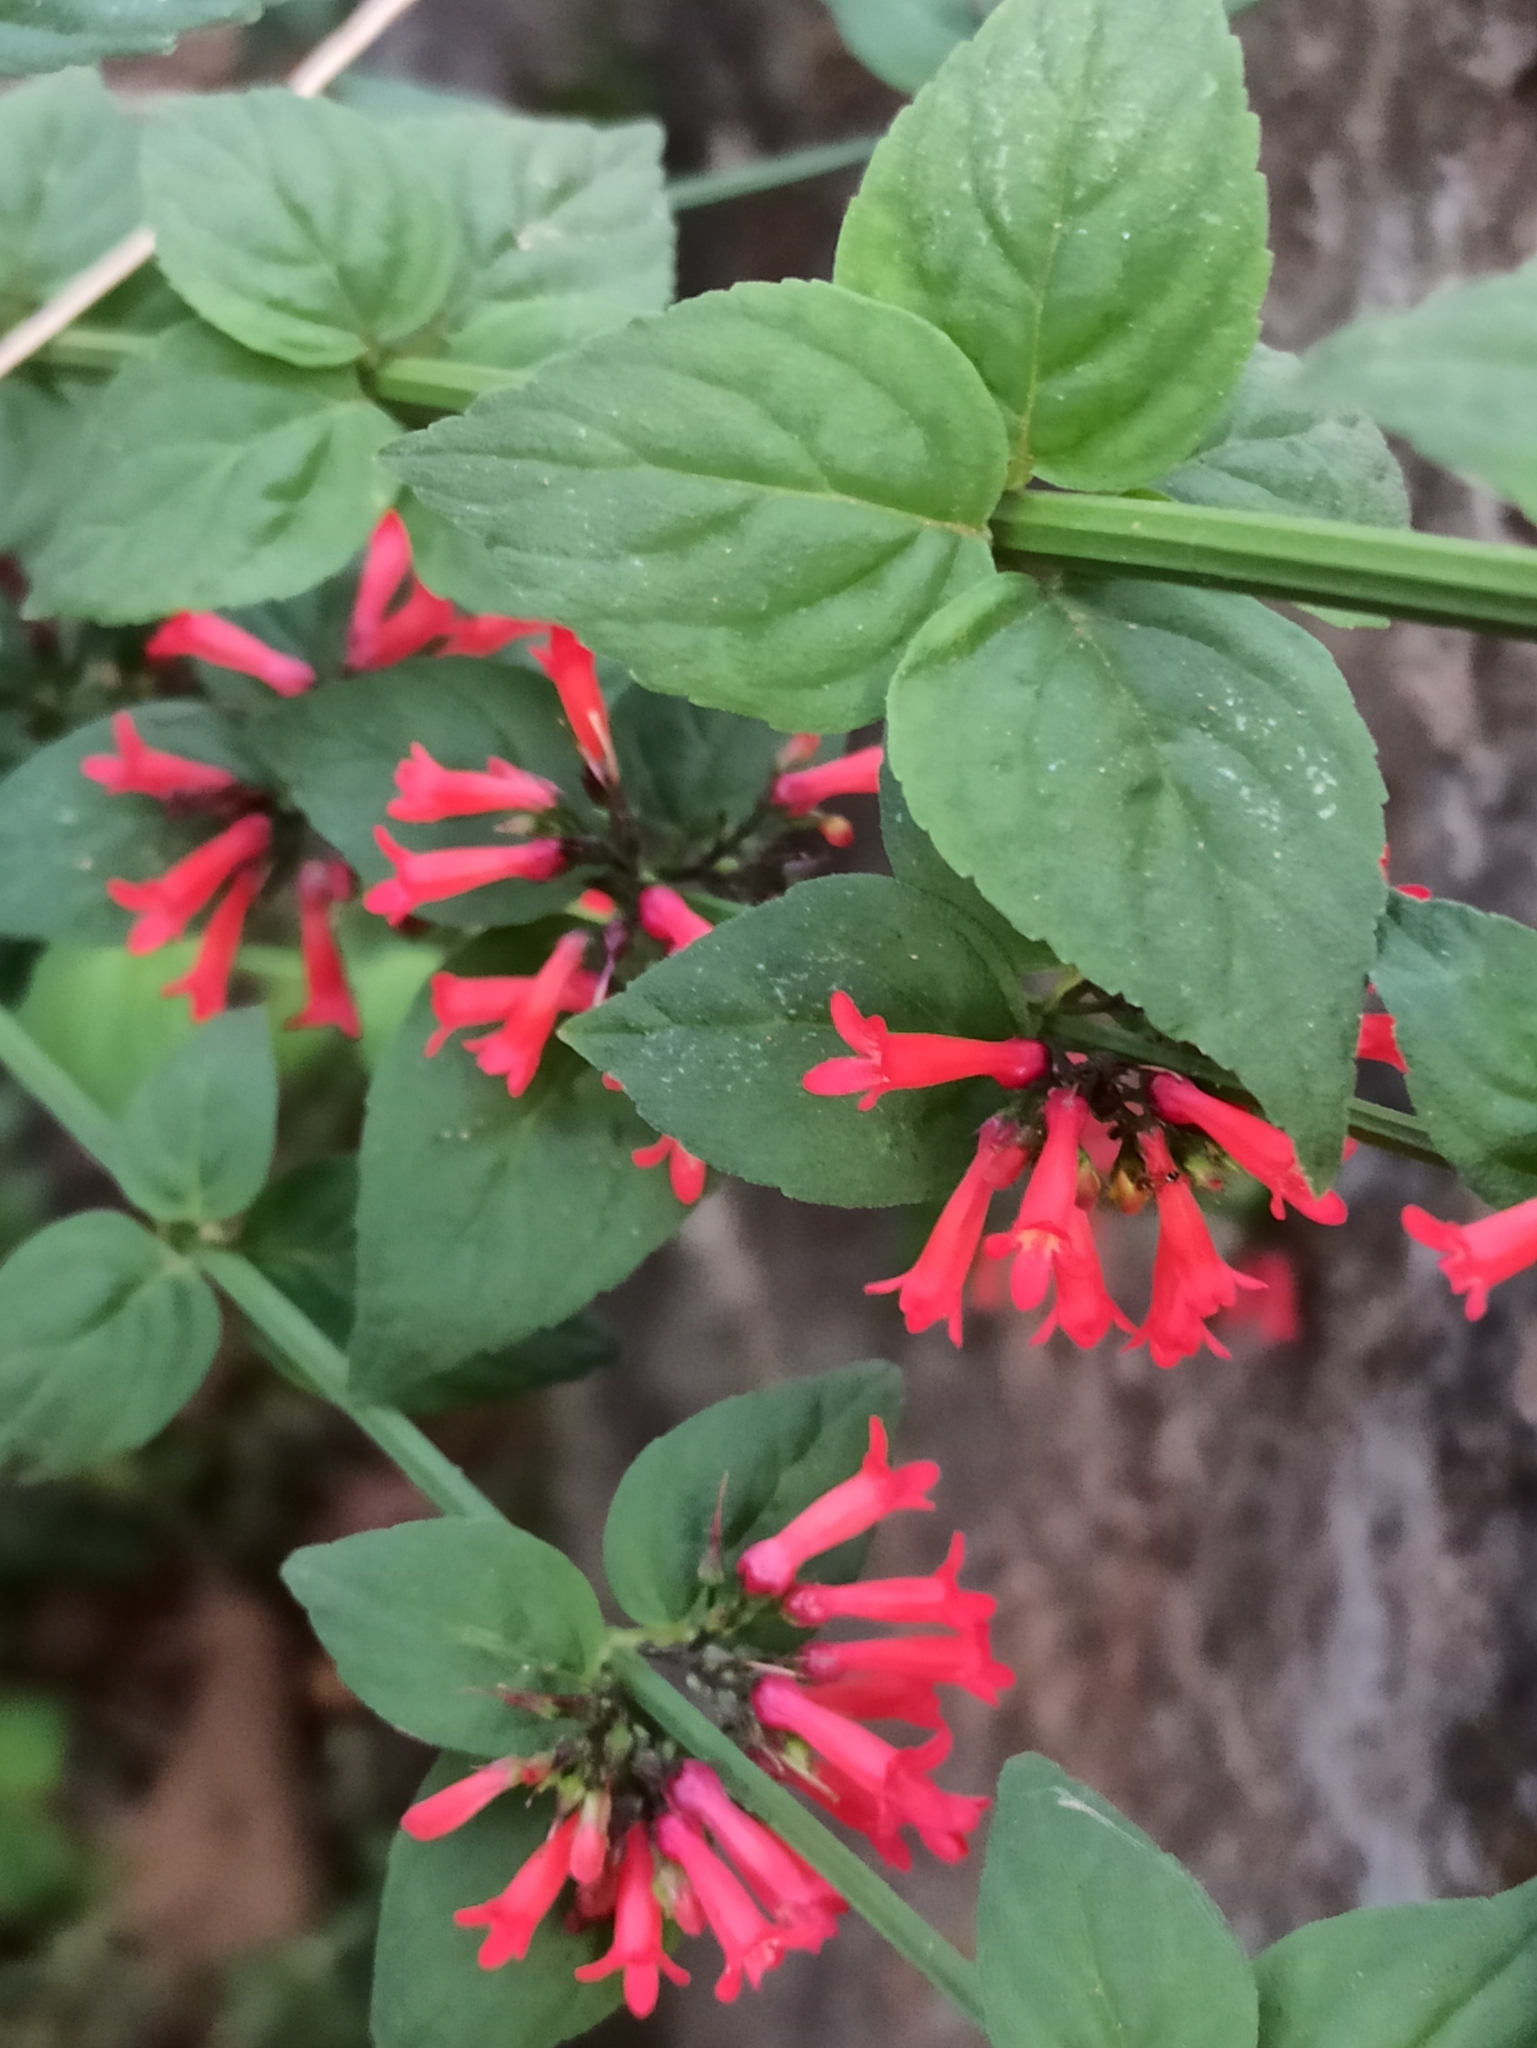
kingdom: Plantae
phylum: Tracheophyta
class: Magnoliopsida
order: Lamiales
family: Plantaginaceae
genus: Russelia
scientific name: Russelia sarmentosa
